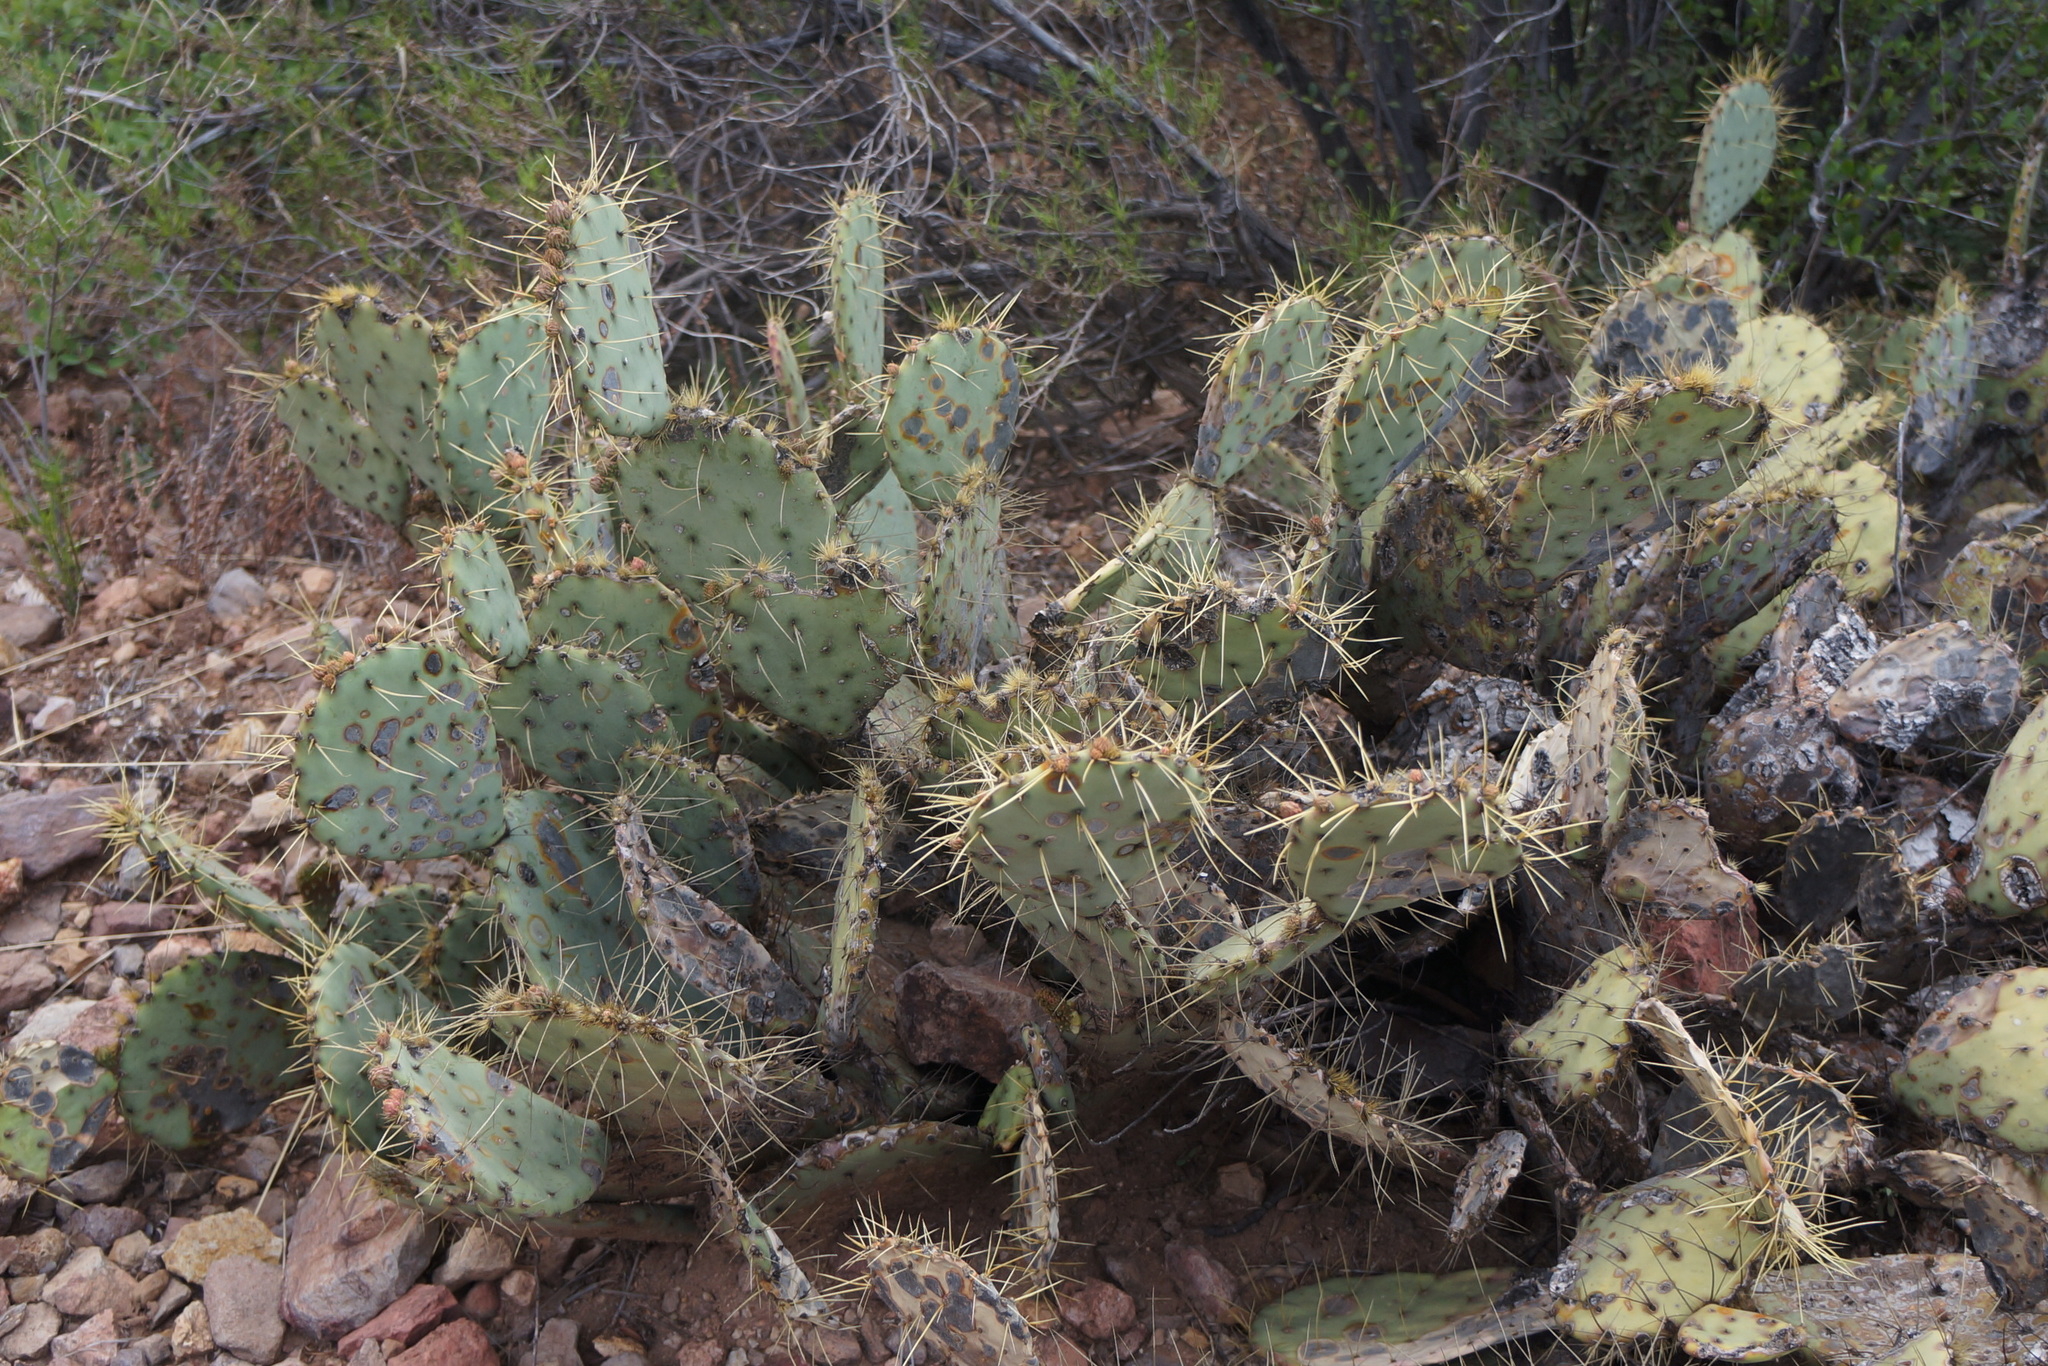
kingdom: Plantae
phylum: Tracheophyta
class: Magnoliopsida
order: Caryophyllales
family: Cactaceae
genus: Opuntia
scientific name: Opuntia chisosensis
